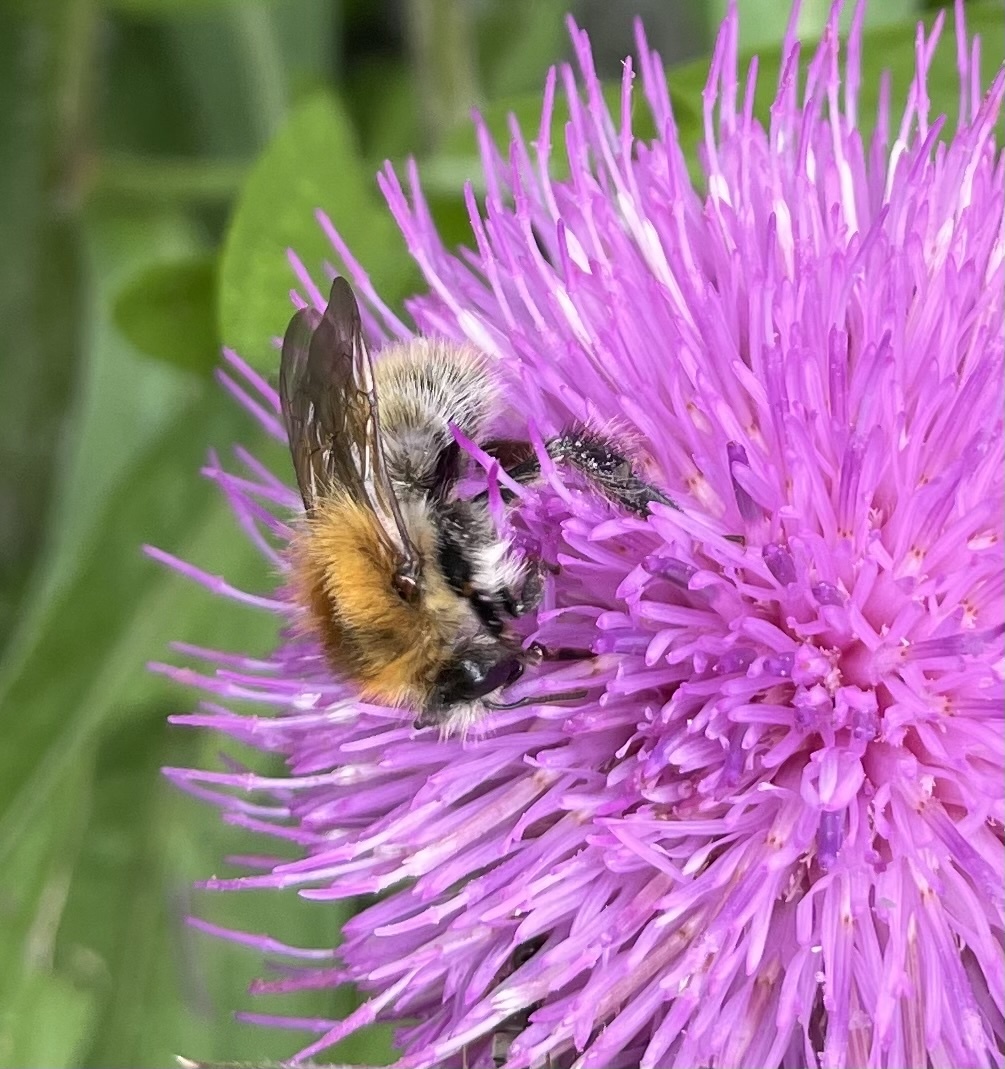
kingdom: Animalia
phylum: Arthropoda
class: Insecta
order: Hymenoptera
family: Apidae
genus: Bombus
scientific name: Bombus pascuorum
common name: Common carder bee
